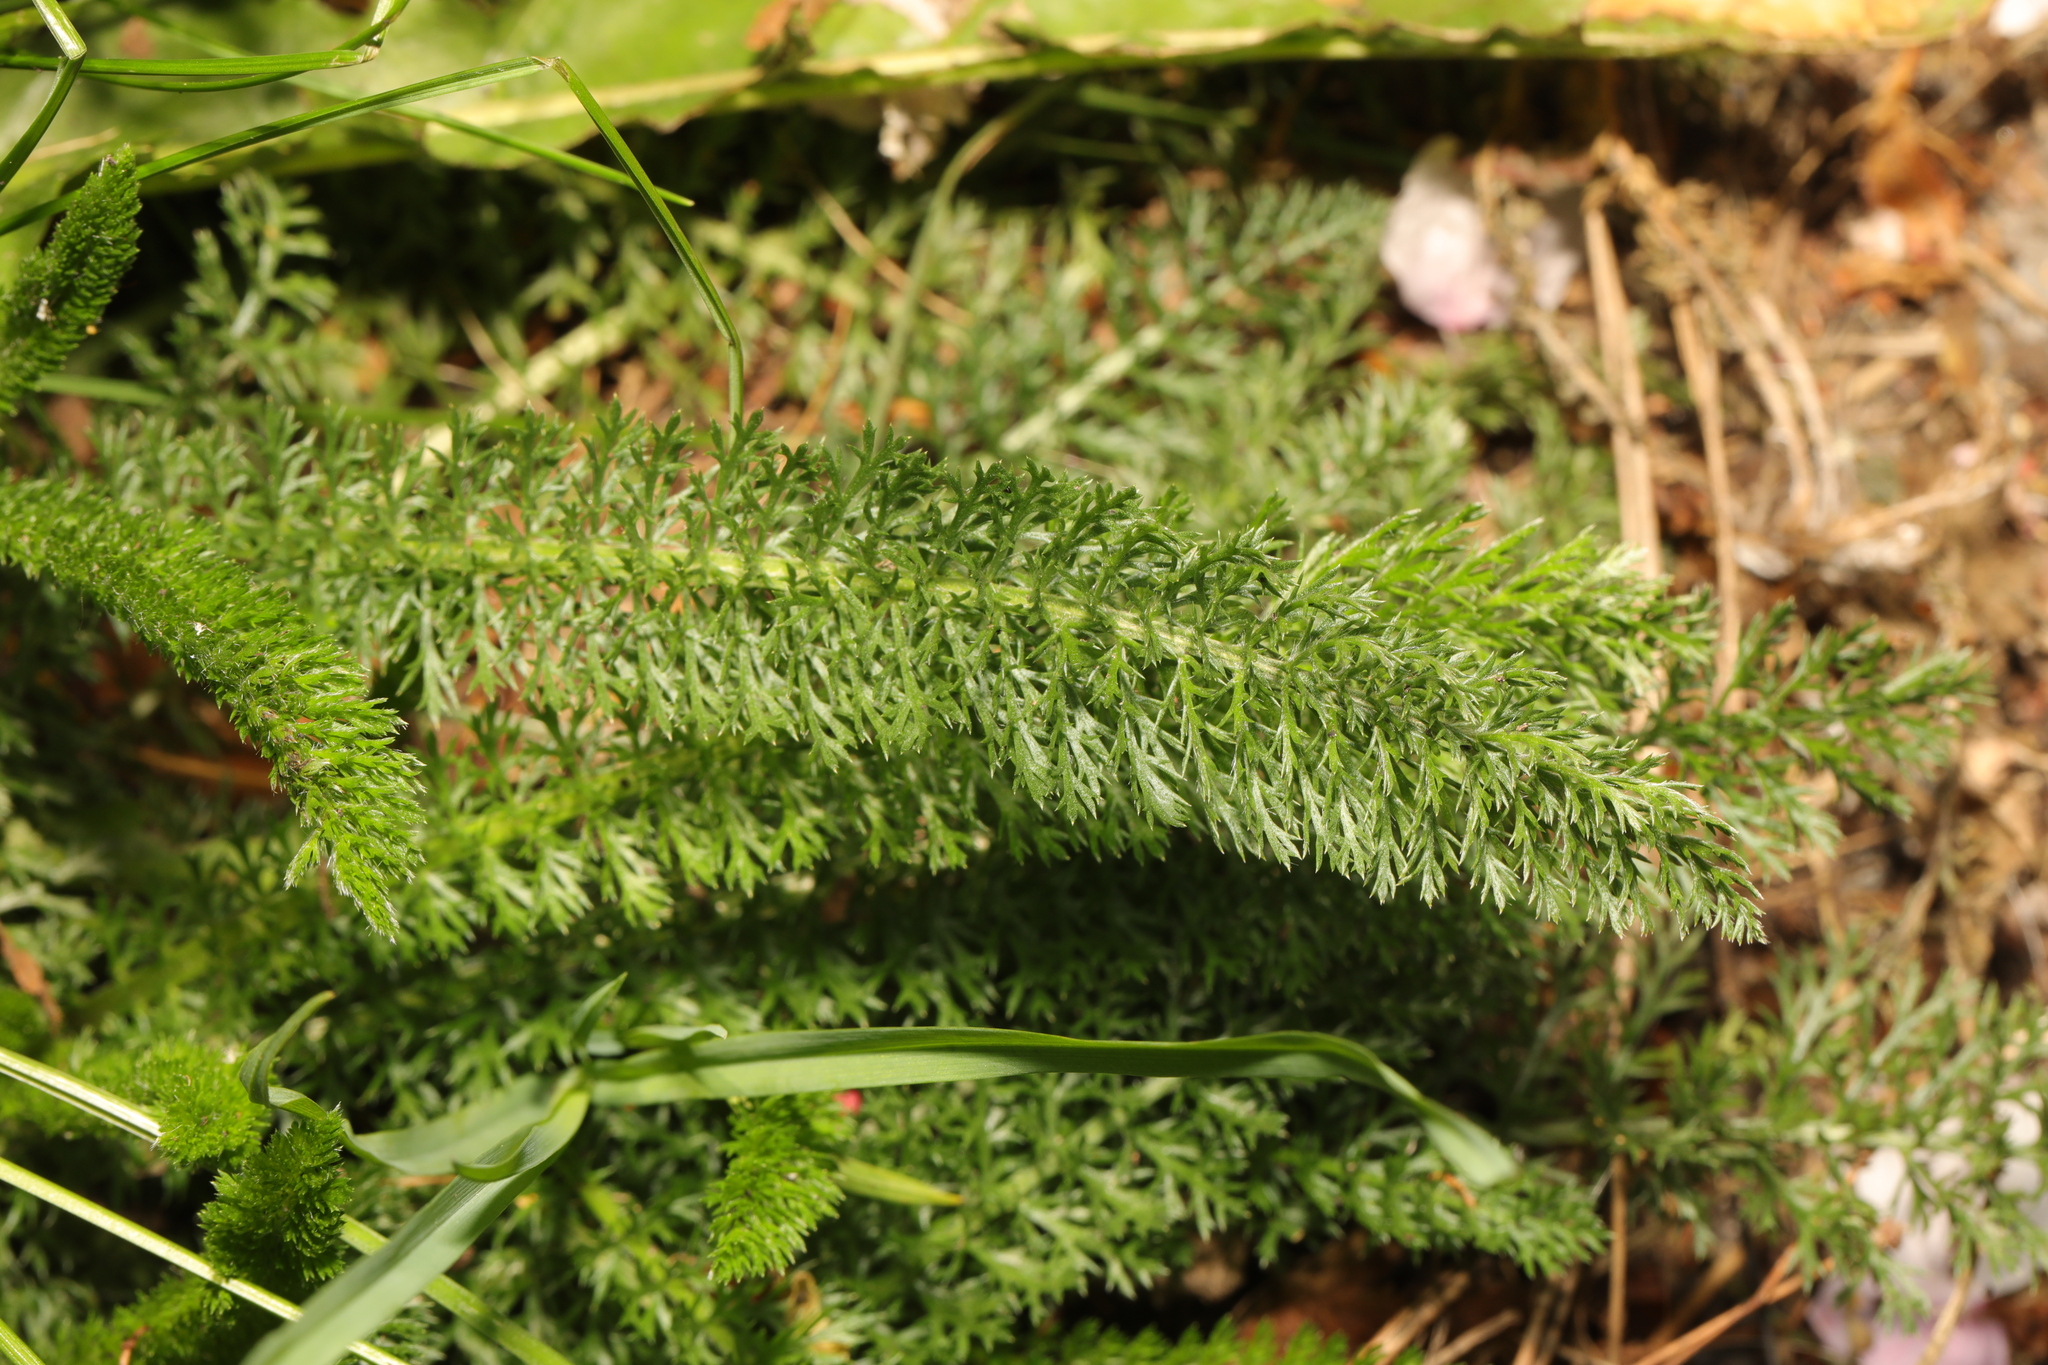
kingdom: Plantae
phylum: Tracheophyta
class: Magnoliopsida
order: Asterales
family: Asteraceae
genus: Achillea
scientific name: Achillea millefolium
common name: Yarrow
